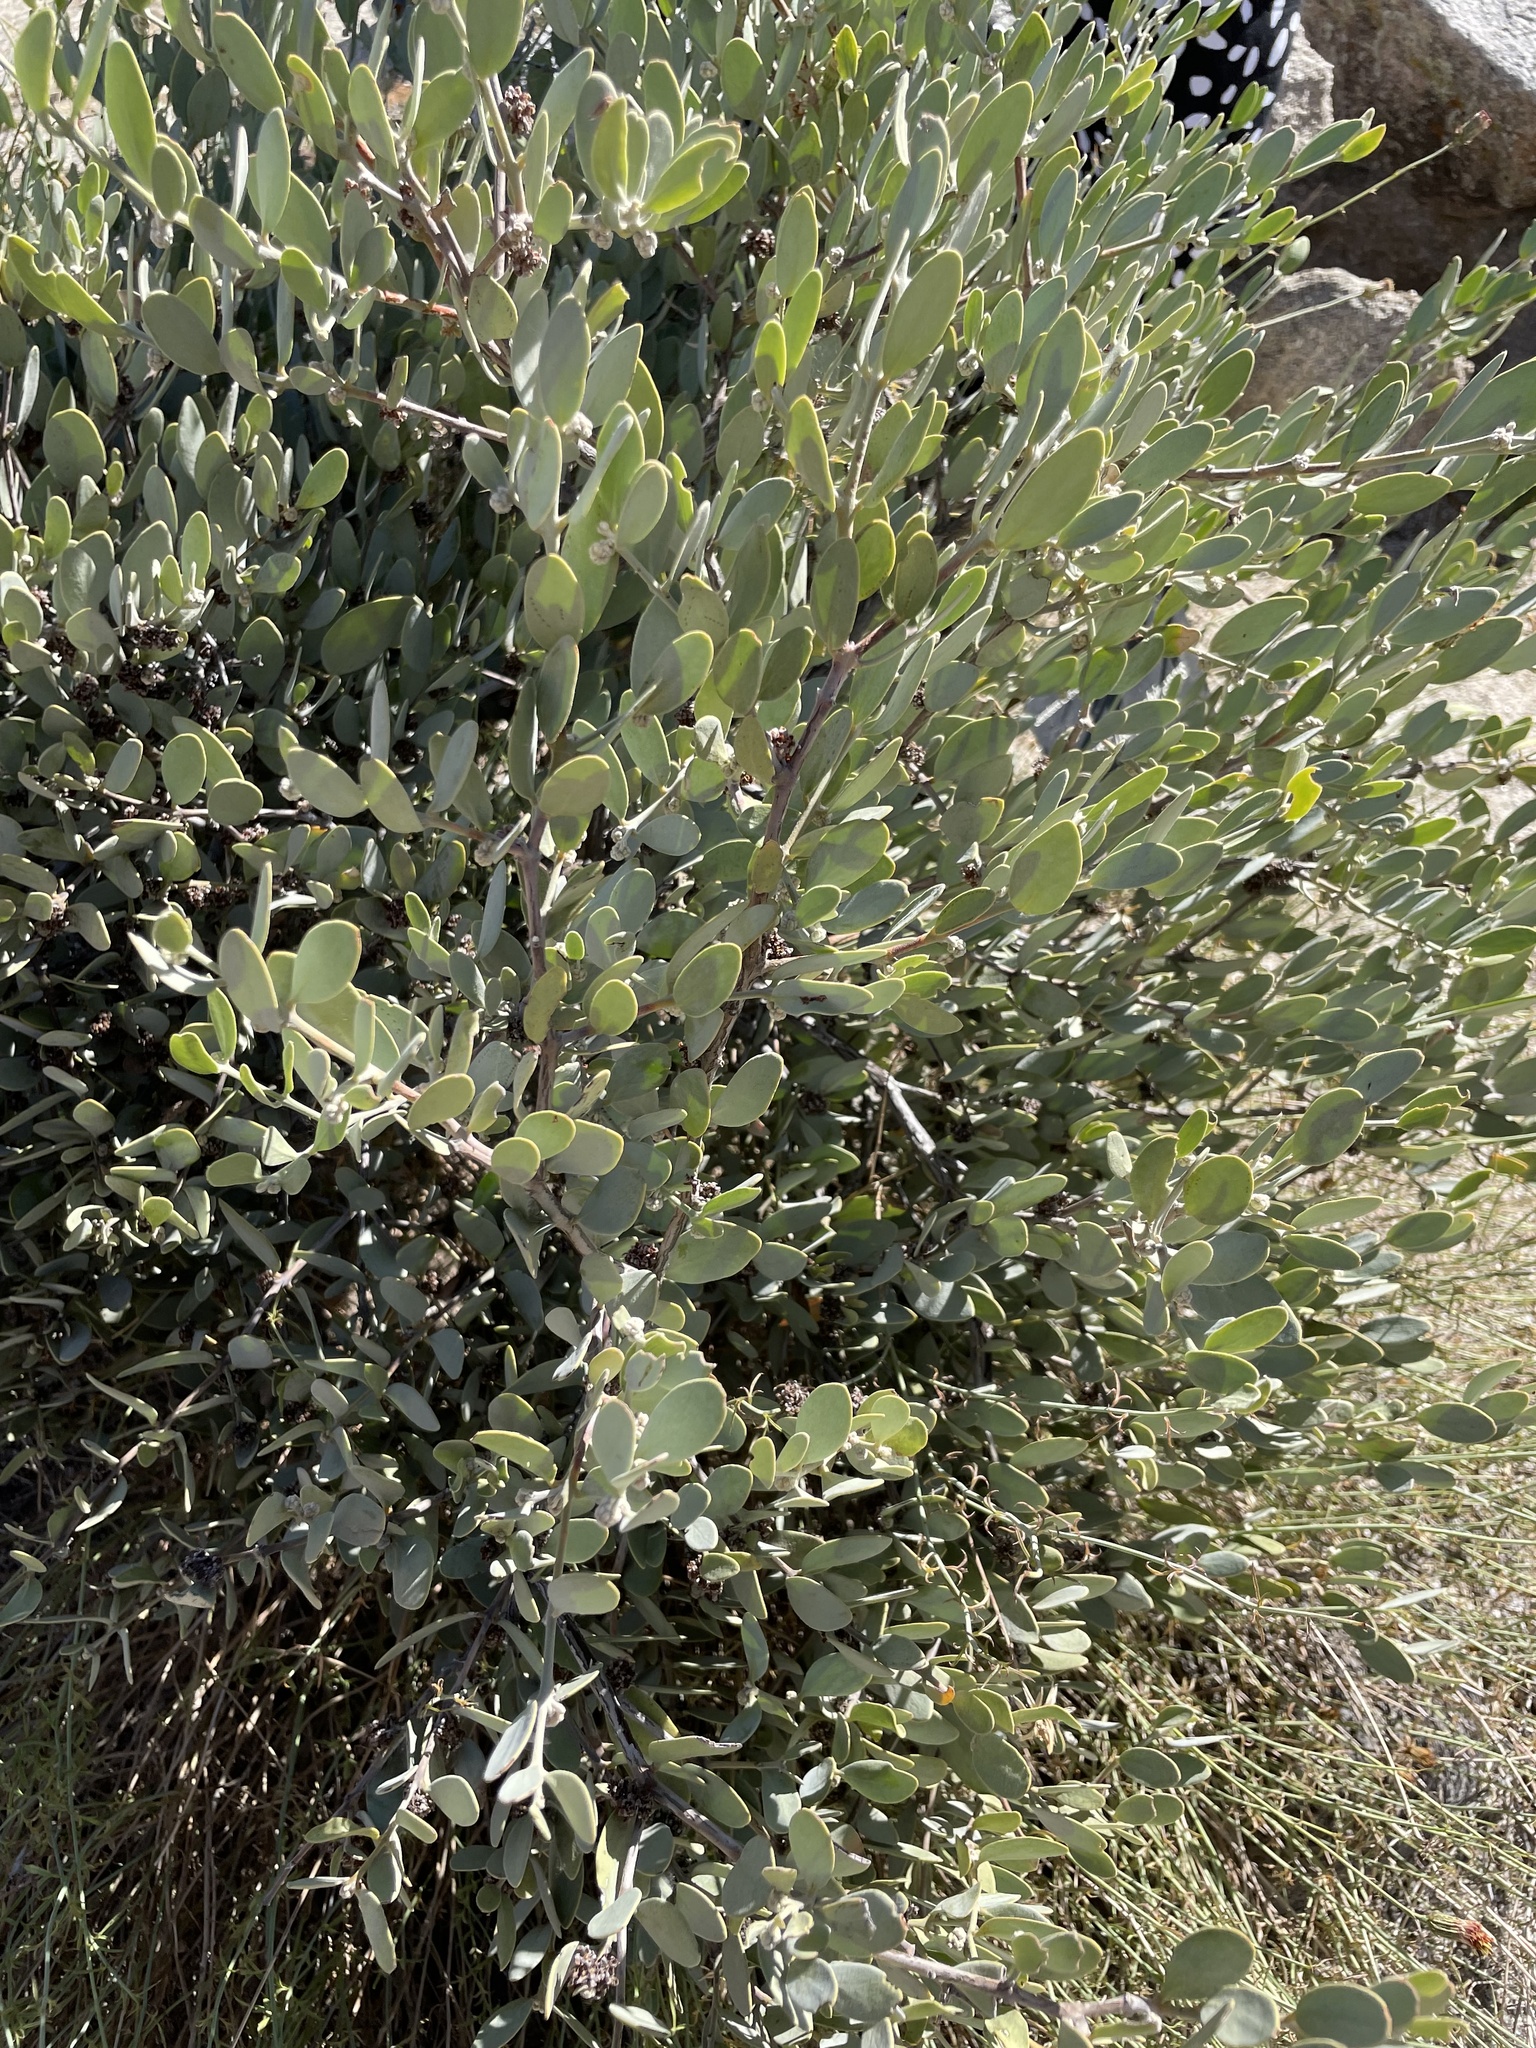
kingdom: Plantae
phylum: Tracheophyta
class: Magnoliopsida
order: Caryophyllales
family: Simmondsiaceae
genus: Simmondsia
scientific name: Simmondsia chinensis
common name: Jojoba
